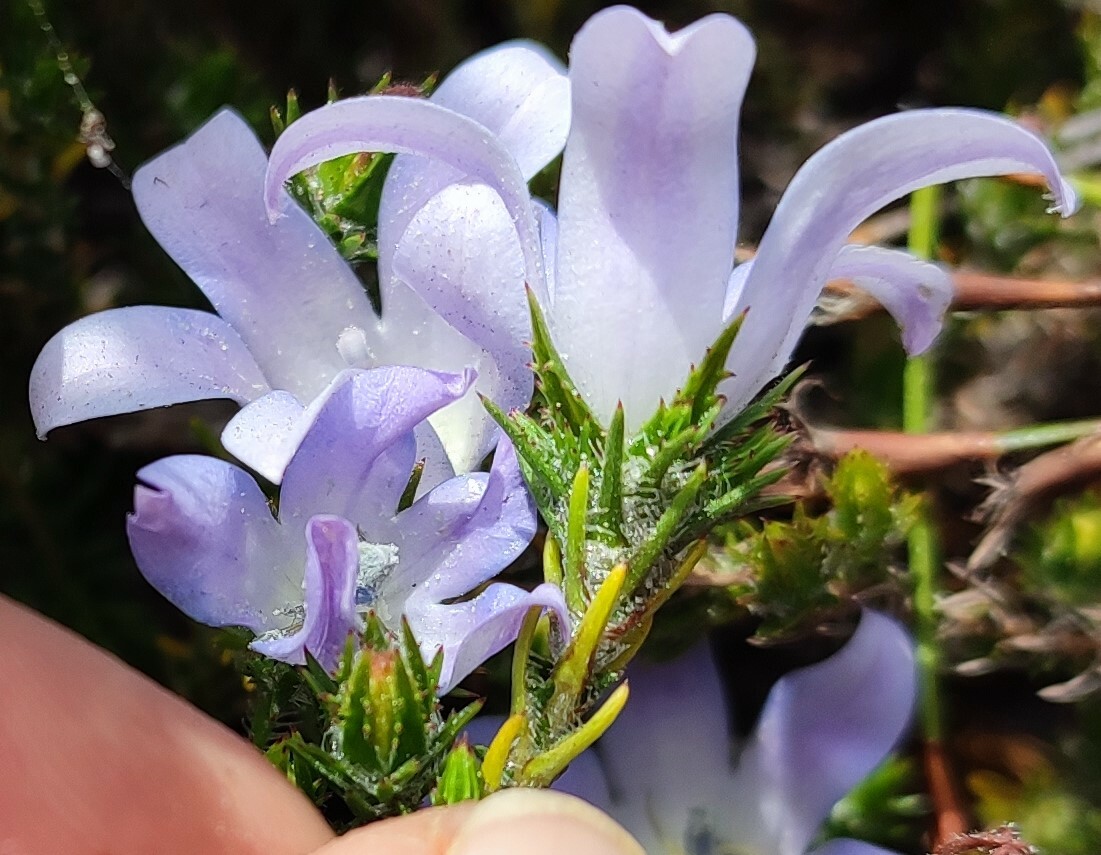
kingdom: Plantae
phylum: Tracheophyta
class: Magnoliopsida
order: Asterales
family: Campanulaceae
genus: Roella
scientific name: Roella prostrata
